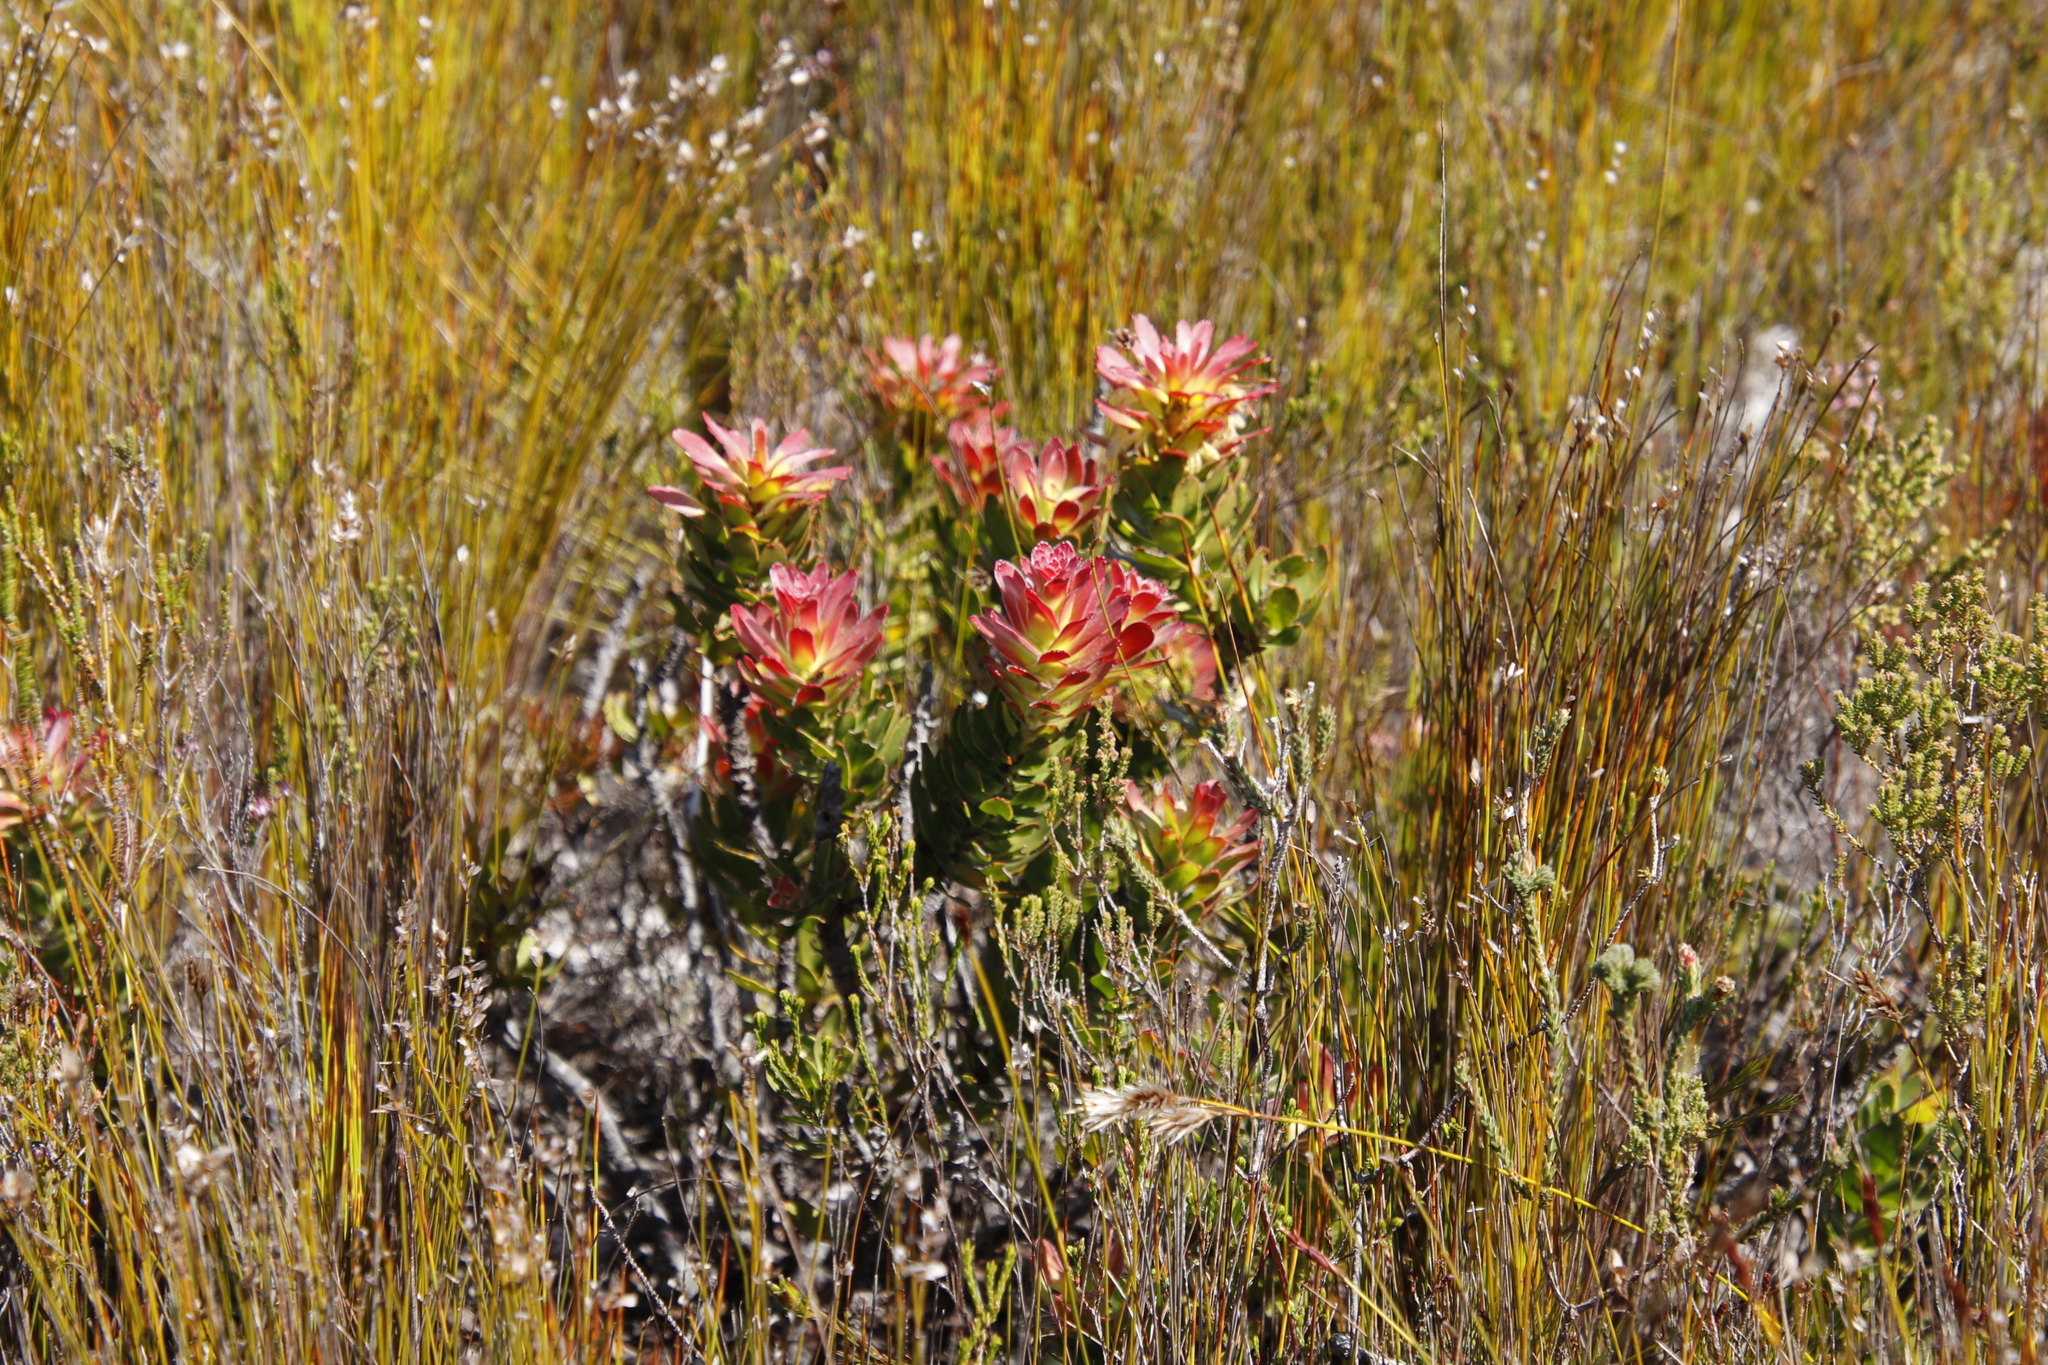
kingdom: Plantae
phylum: Tracheophyta
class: Magnoliopsida
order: Proteales
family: Proteaceae
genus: Mimetes
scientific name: Mimetes cucullatus
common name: Common pagoda
